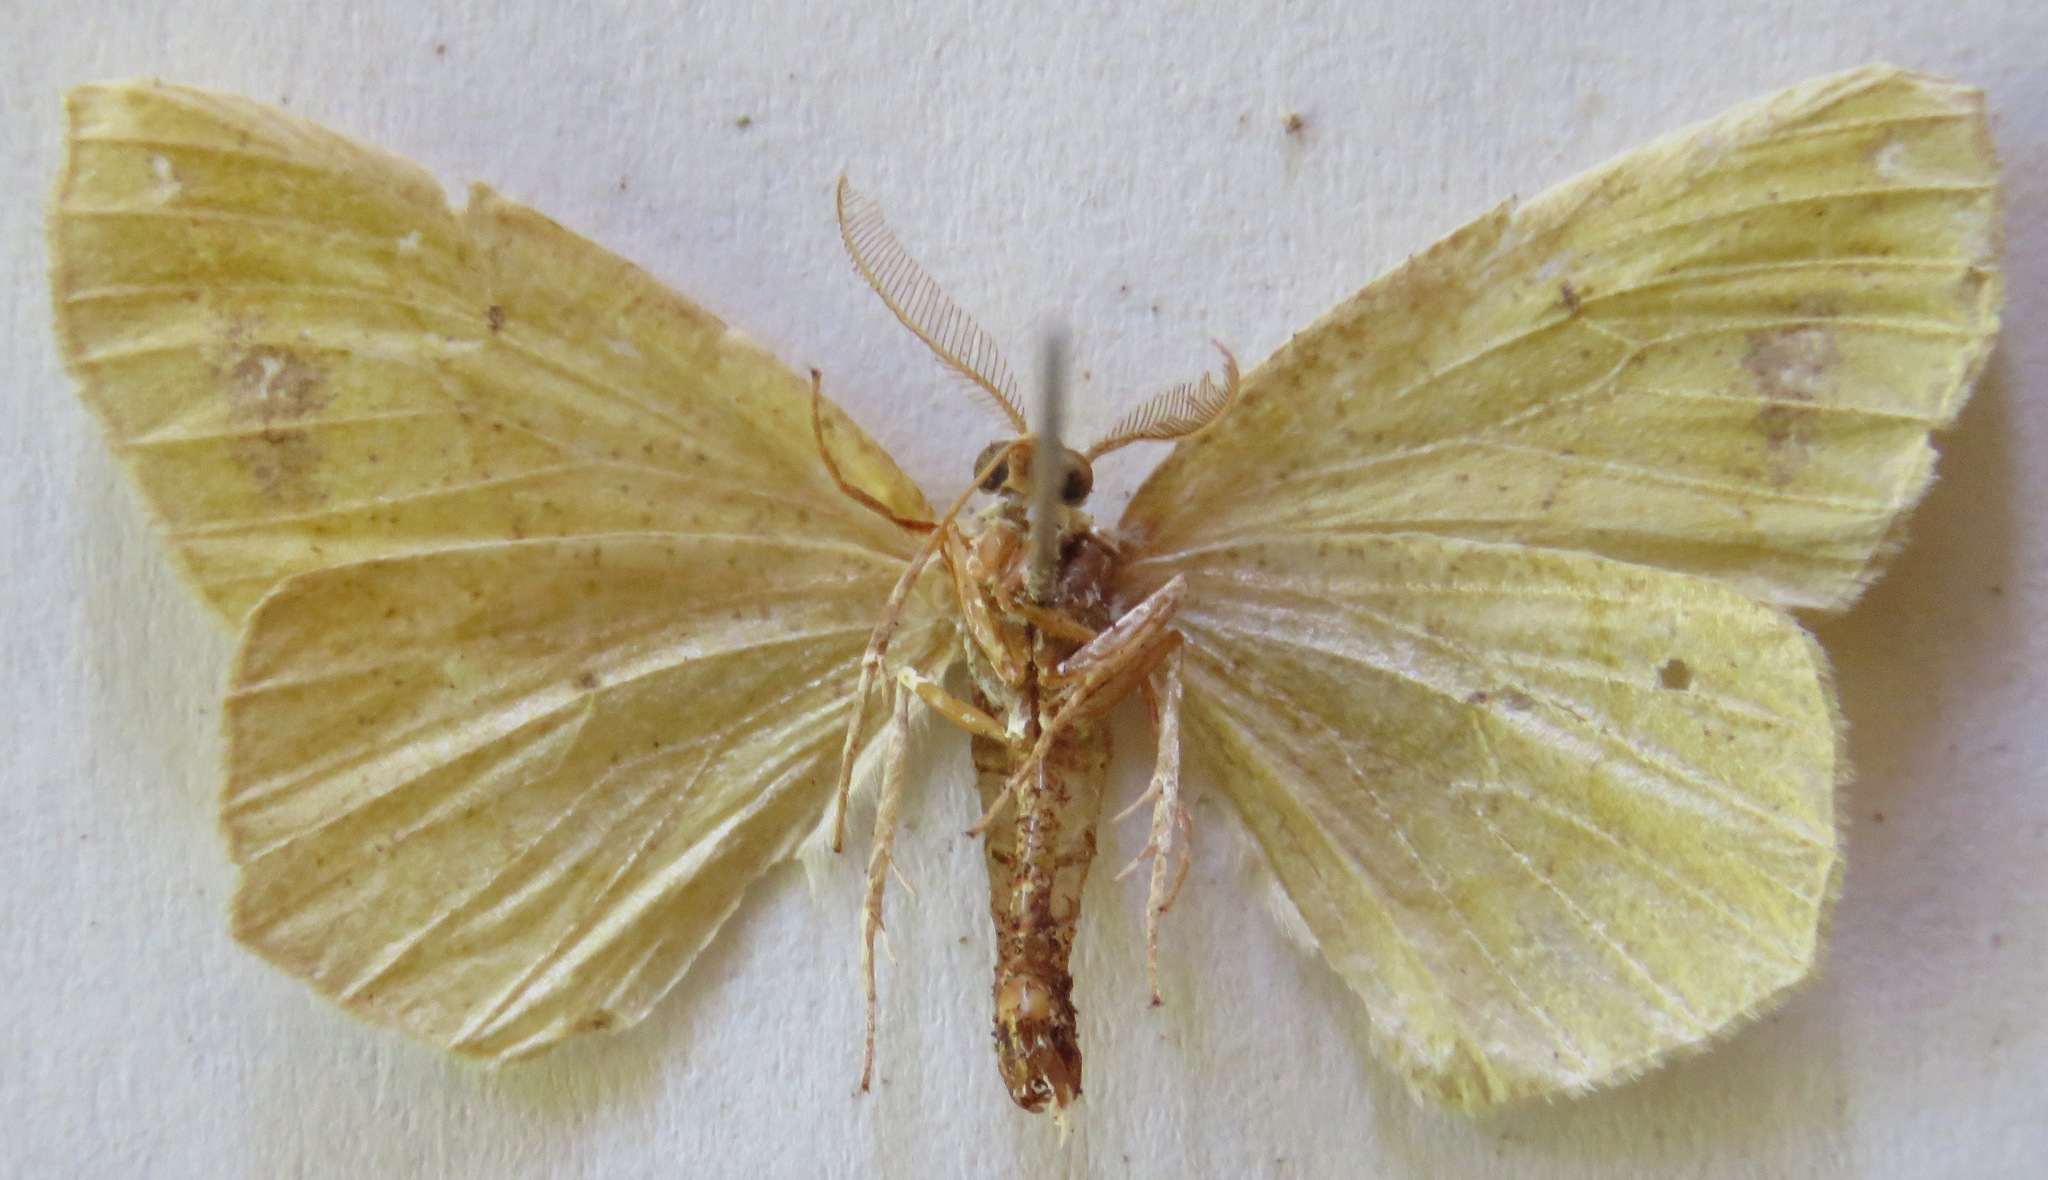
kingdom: Animalia
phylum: Arthropoda
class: Insecta
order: Lepidoptera
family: Geometridae
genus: Himeromima
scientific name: Himeromima aulis
